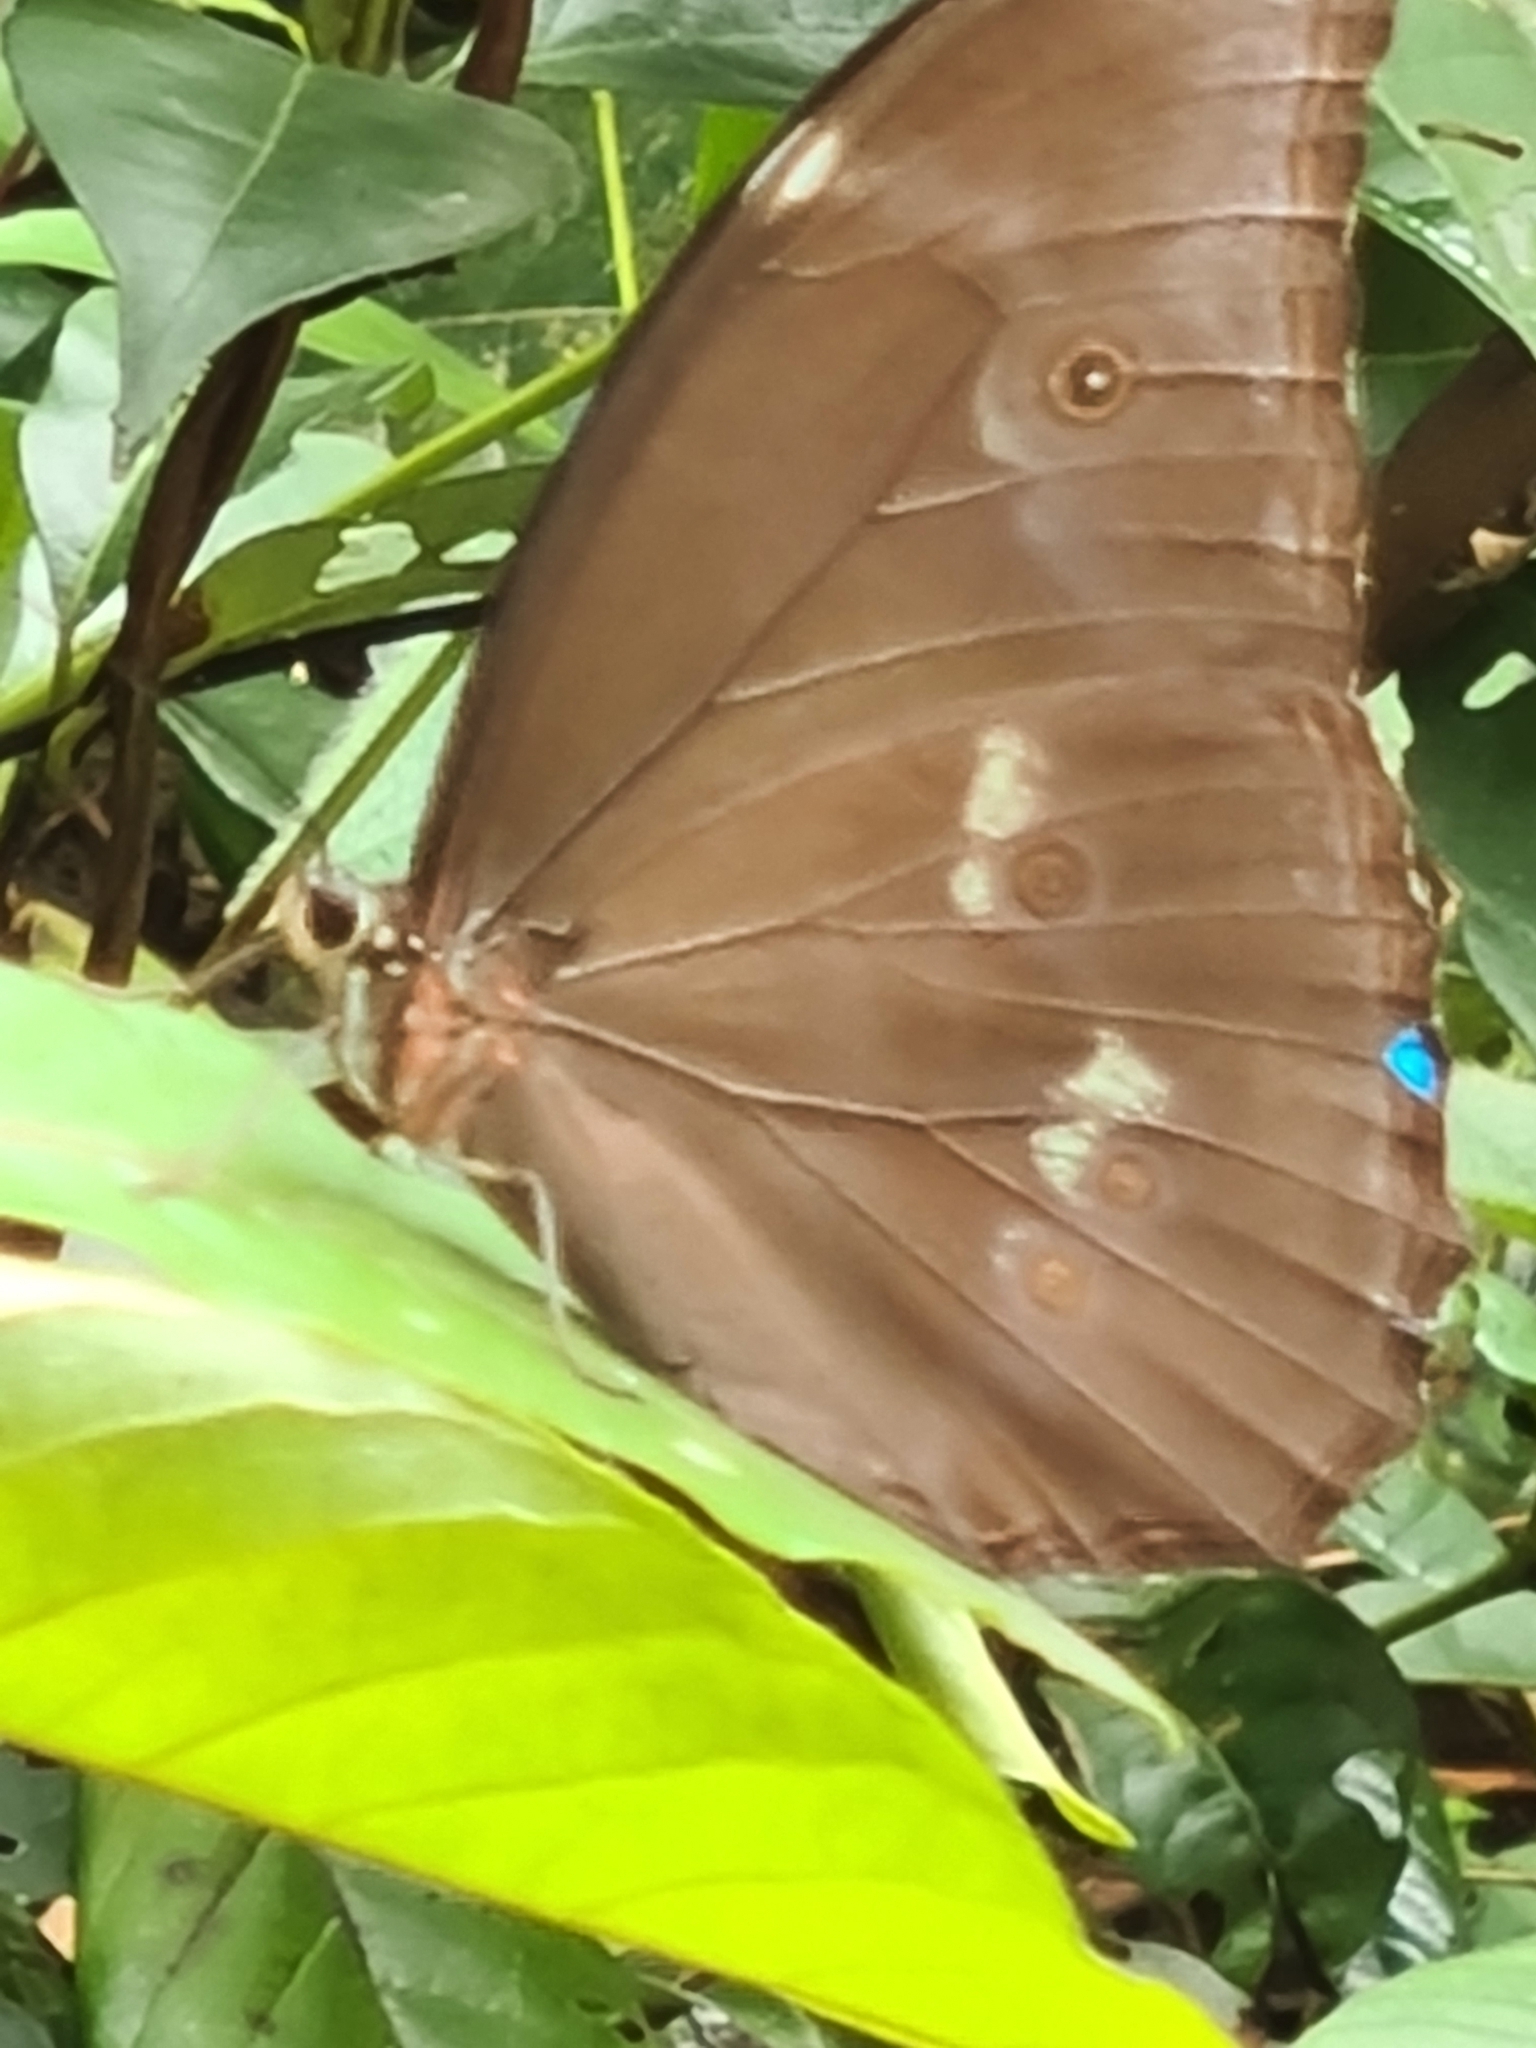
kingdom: Animalia
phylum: Arthropoda
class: Insecta
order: Lepidoptera
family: Nymphalidae
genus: Morpho
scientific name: Morpho menelaus
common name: Menelaus morpho
